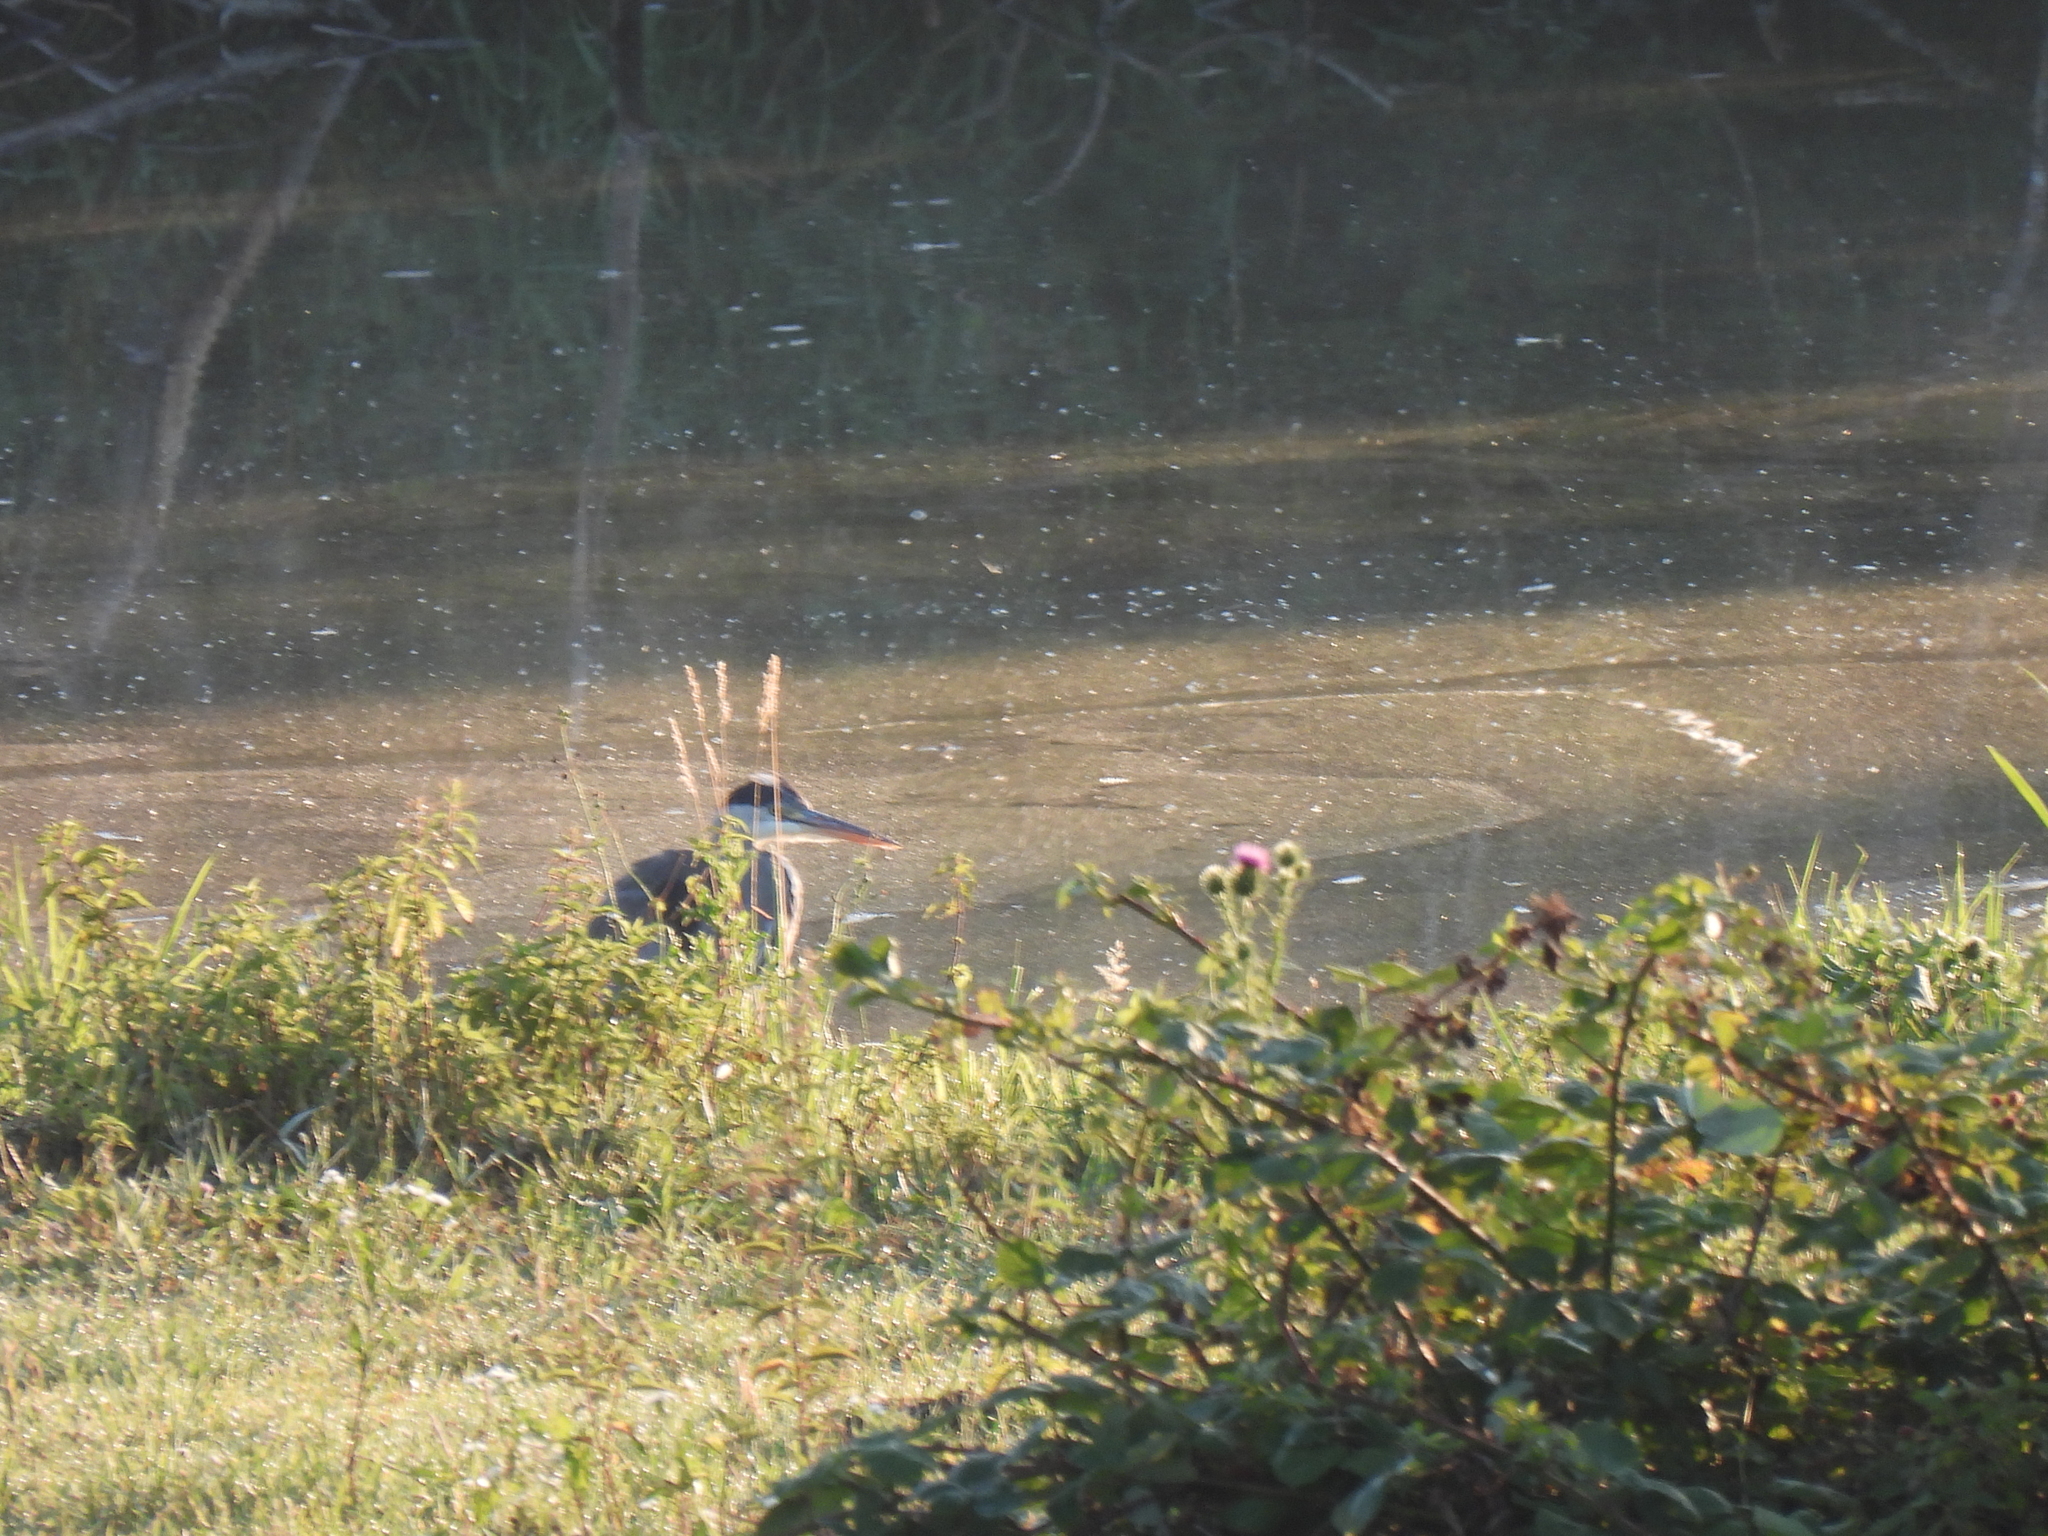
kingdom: Animalia
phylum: Chordata
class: Aves
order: Pelecaniformes
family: Ardeidae
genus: Ardea
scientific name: Ardea cinerea
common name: Grey heron
